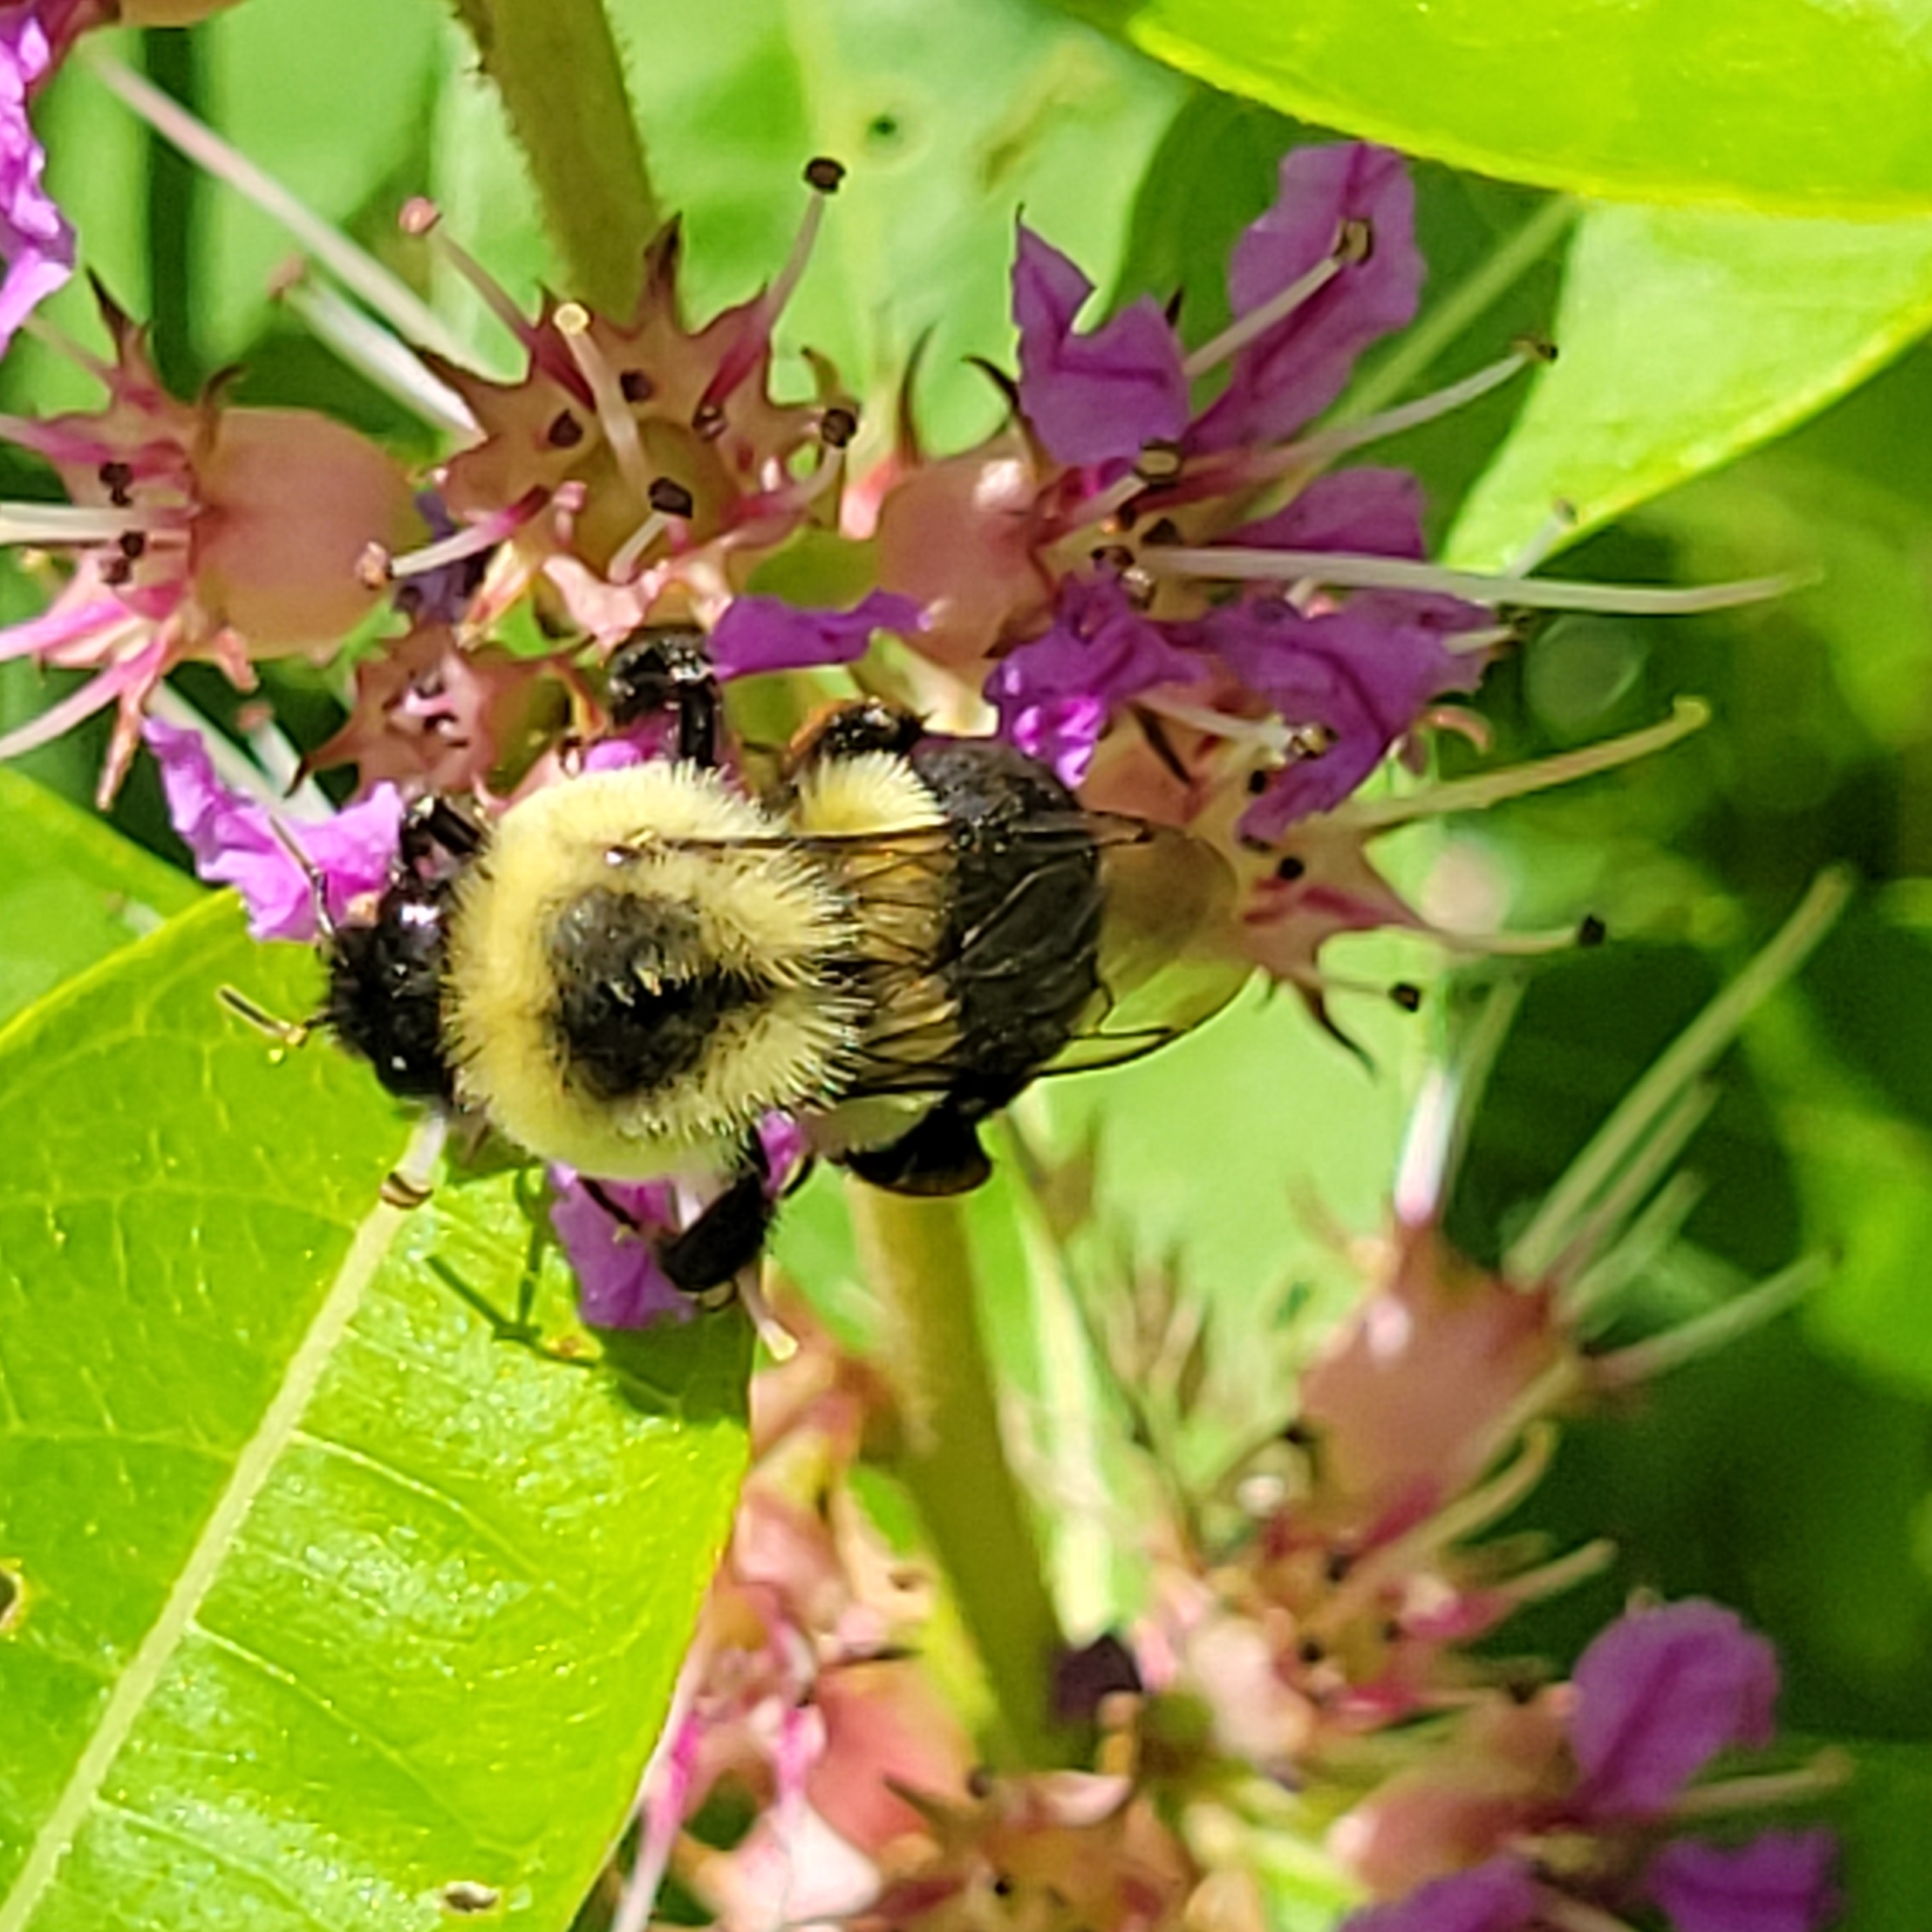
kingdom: Animalia
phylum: Arthropoda
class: Insecta
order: Hymenoptera
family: Apidae
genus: Bombus
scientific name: Bombus impatiens
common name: Common eastern bumble bee
